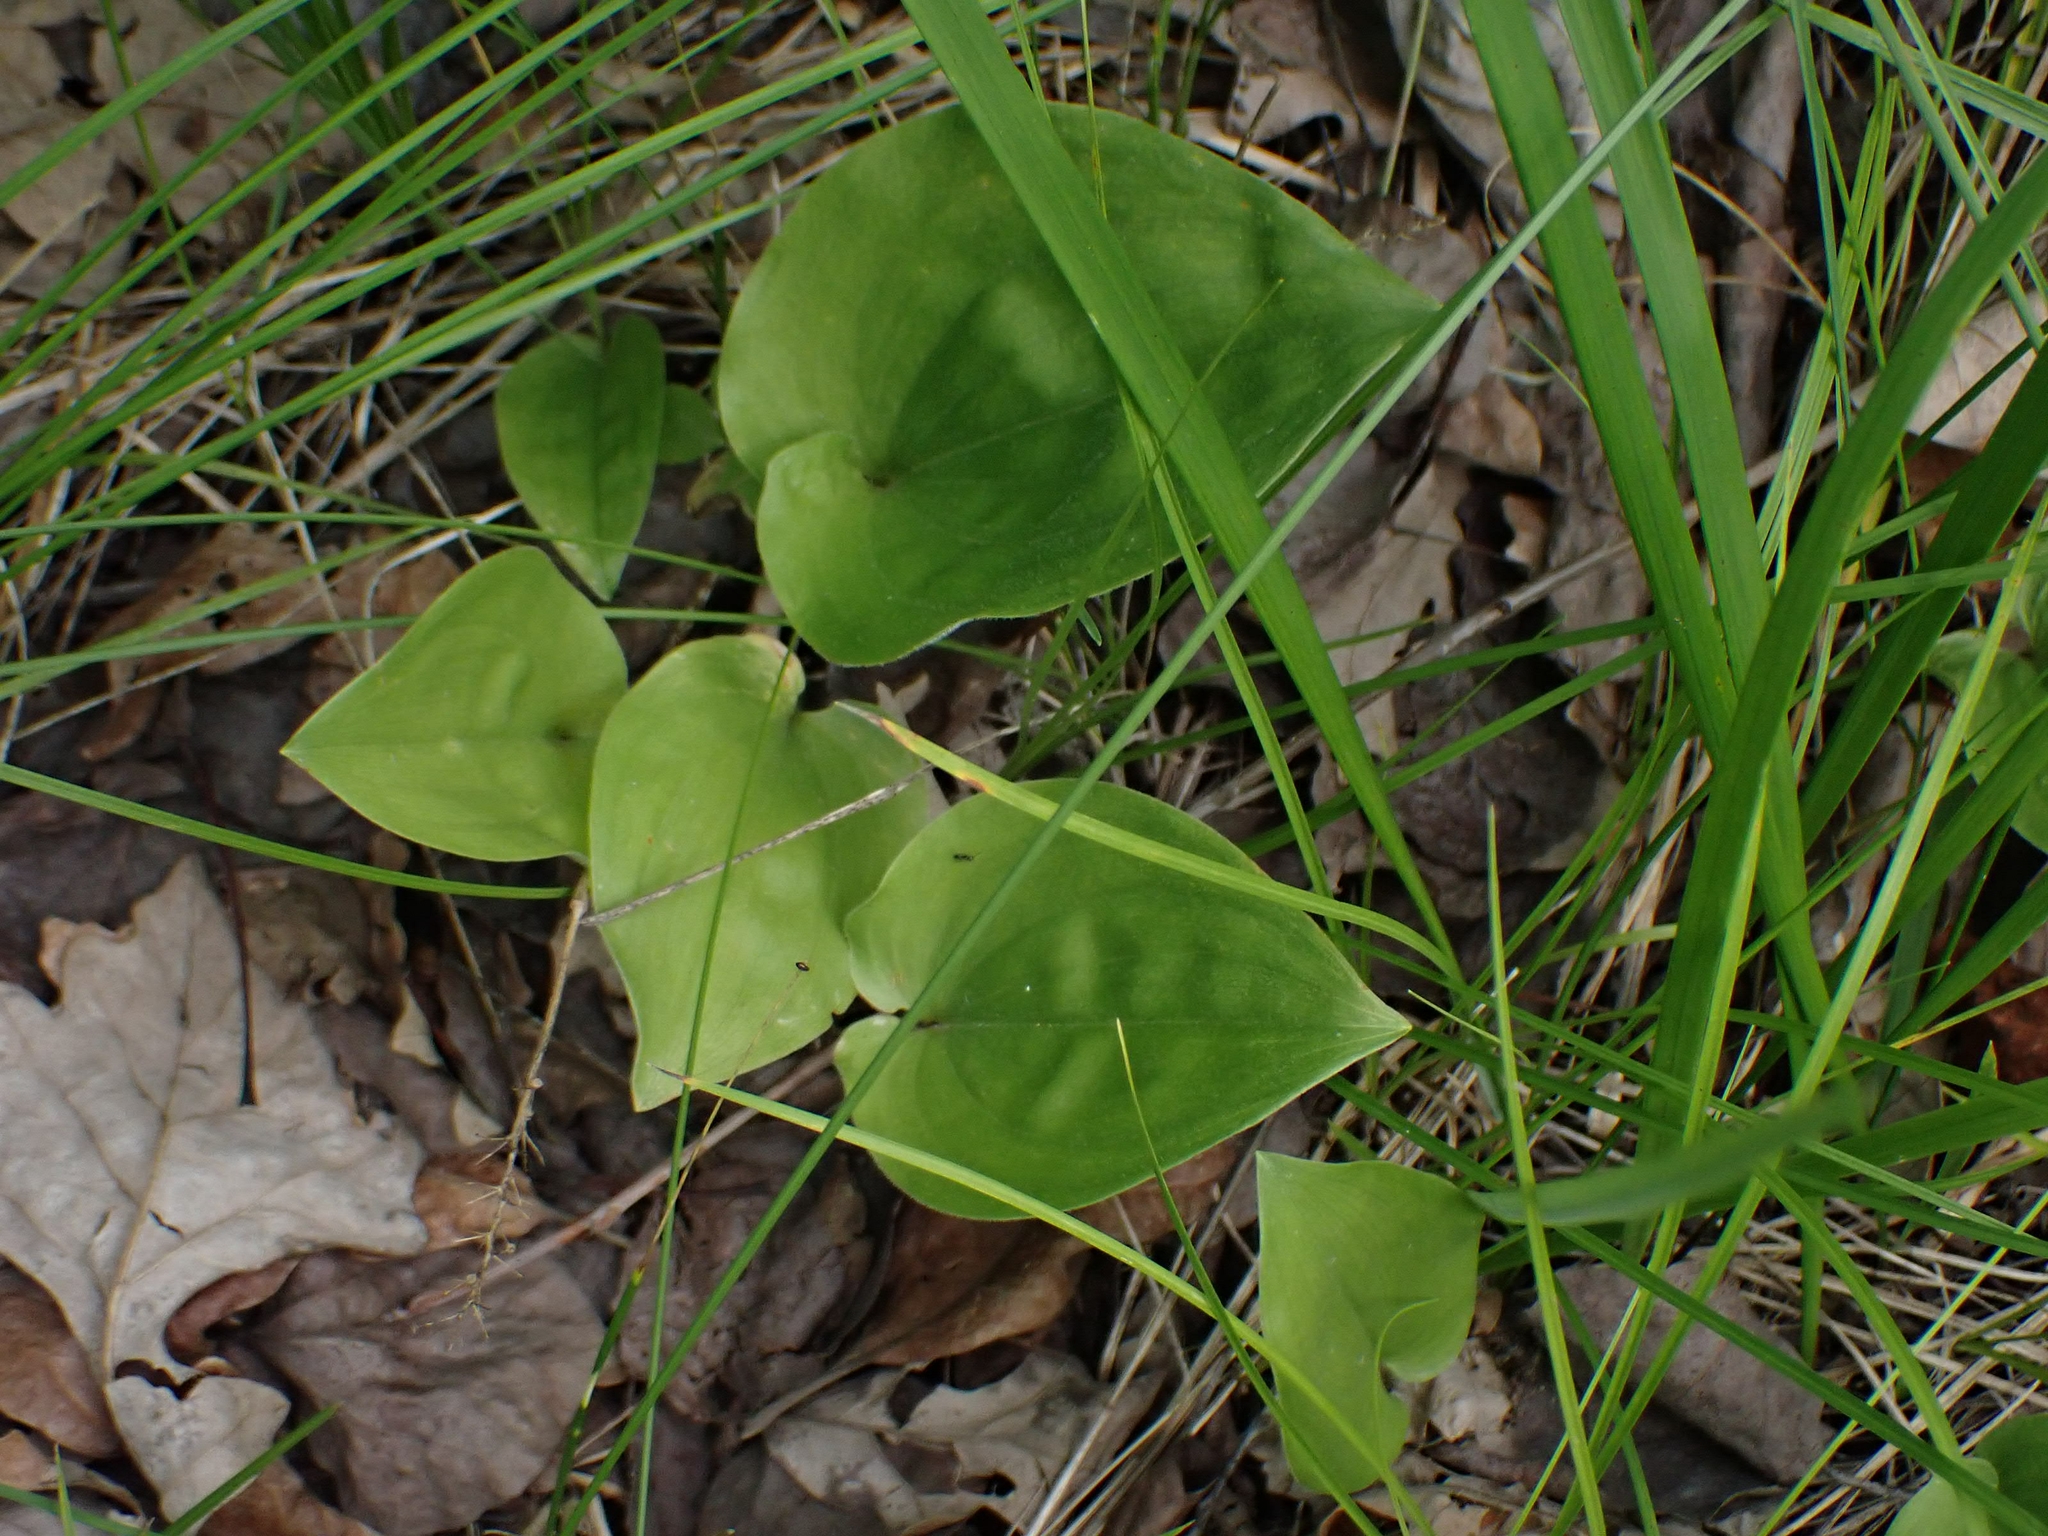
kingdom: Plantae
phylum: Tracheophyta
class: Liliopsida
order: Asparagales
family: Asparagaceae
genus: Maianthemum
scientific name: Maianthemum canadense
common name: False lily-of-the-valley
